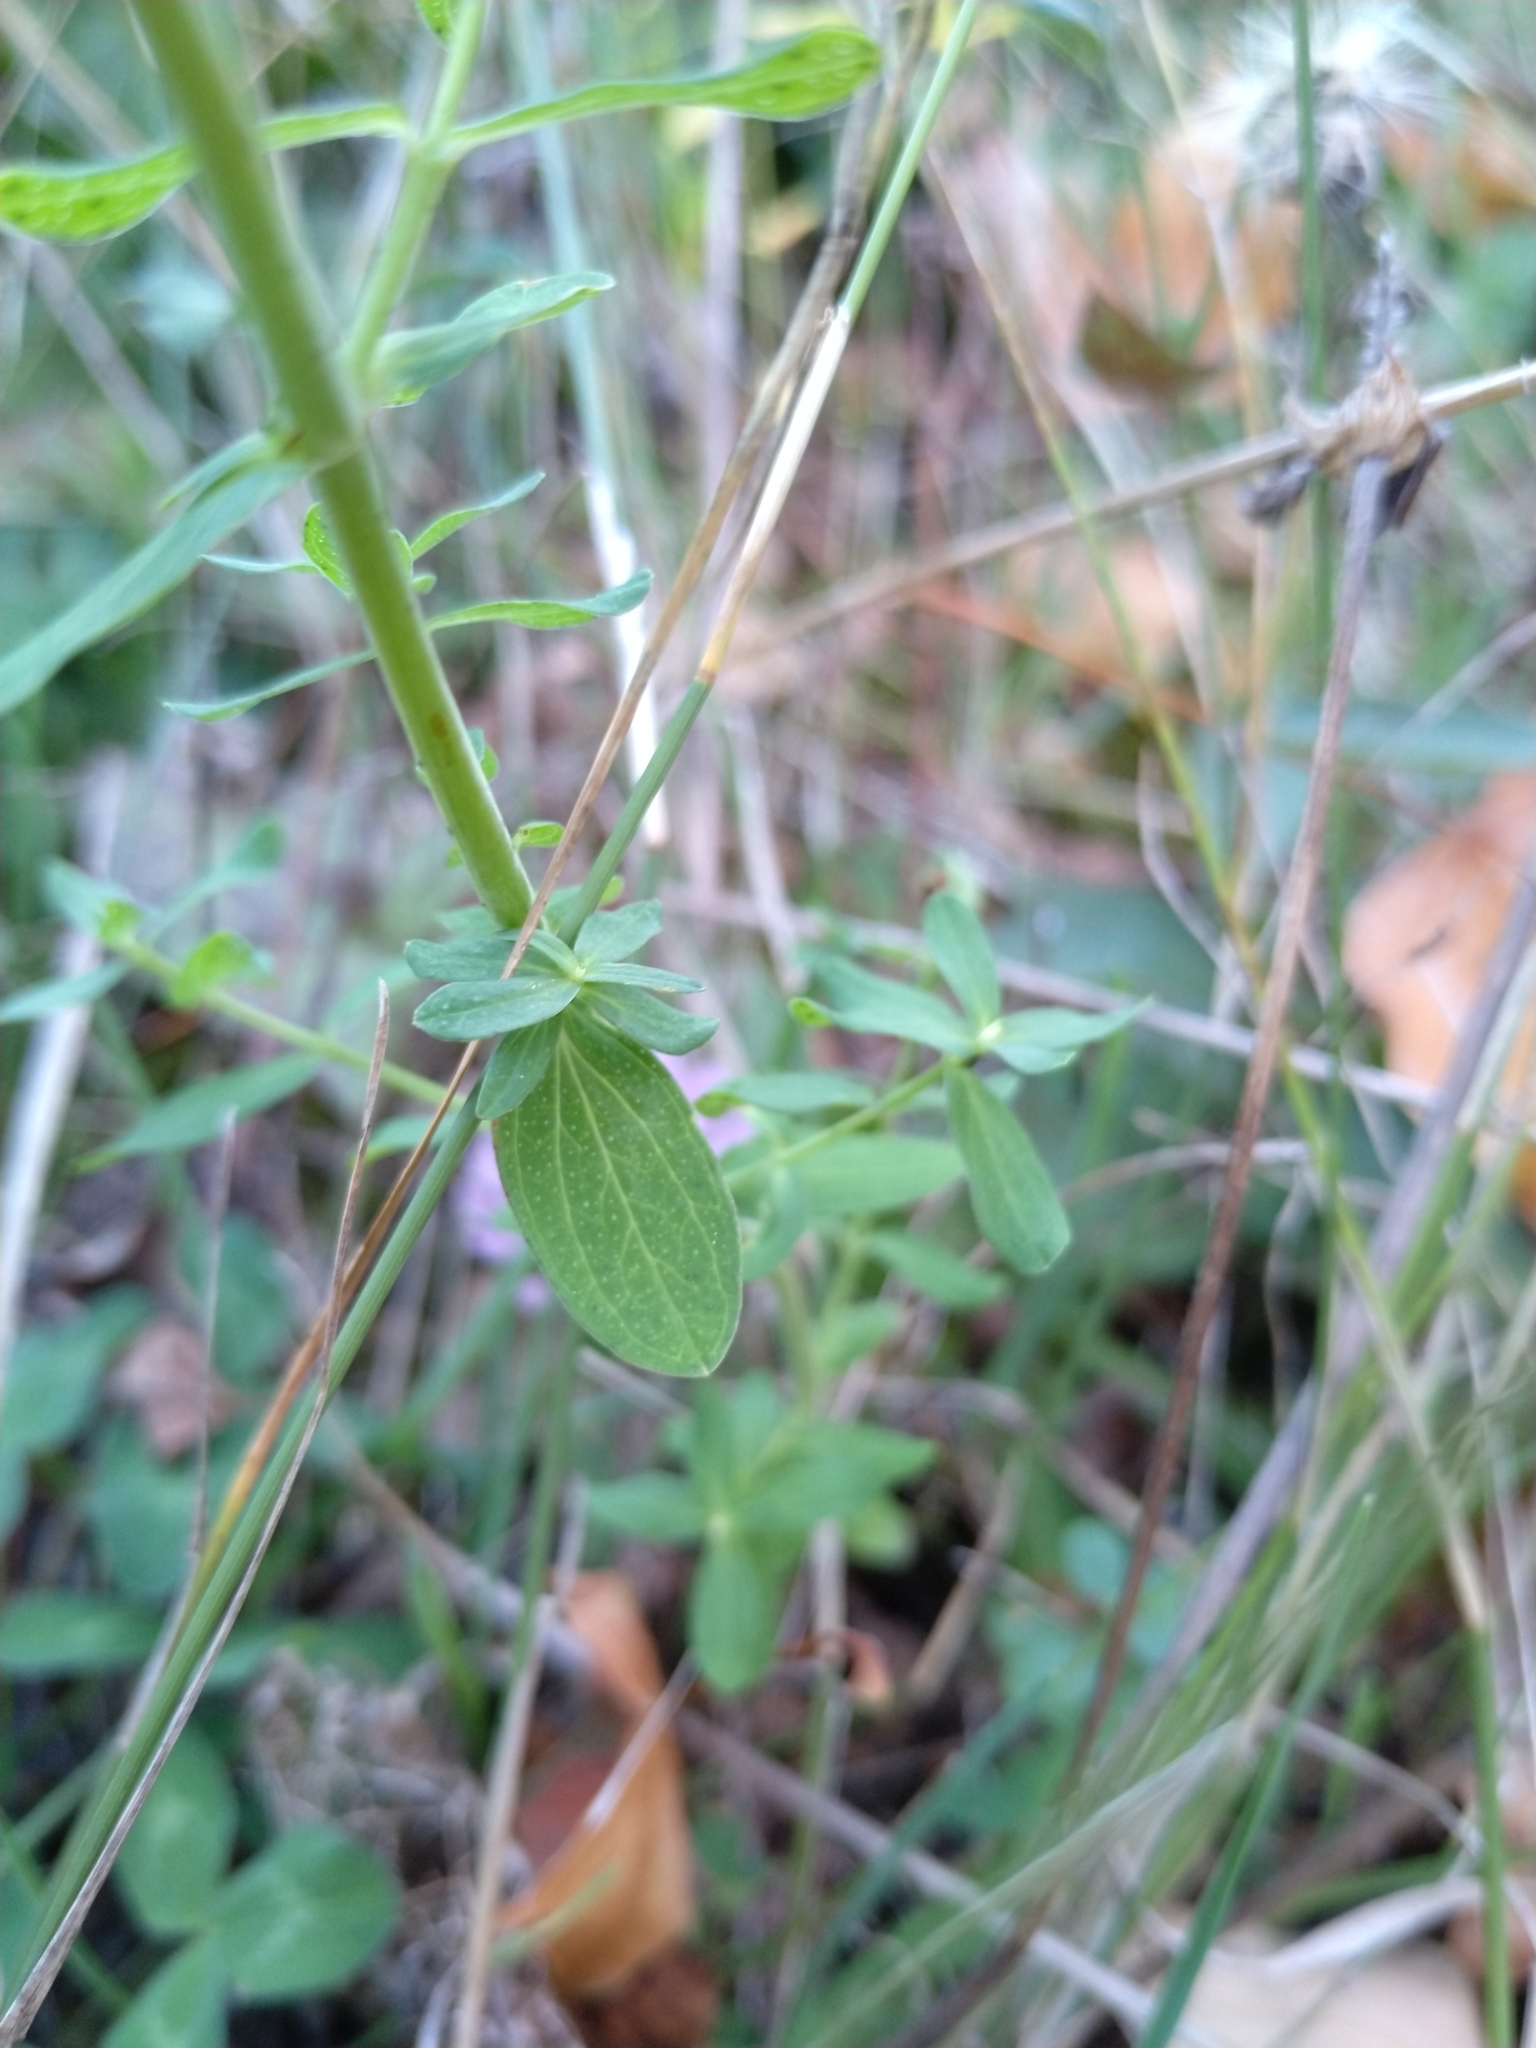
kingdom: Plantae
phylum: Tracheophyta
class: Magnoliopsida
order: Malpighiales
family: Hypericaceae
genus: Hypericum
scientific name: Hypericum perforatum
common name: Common st. johnswort
